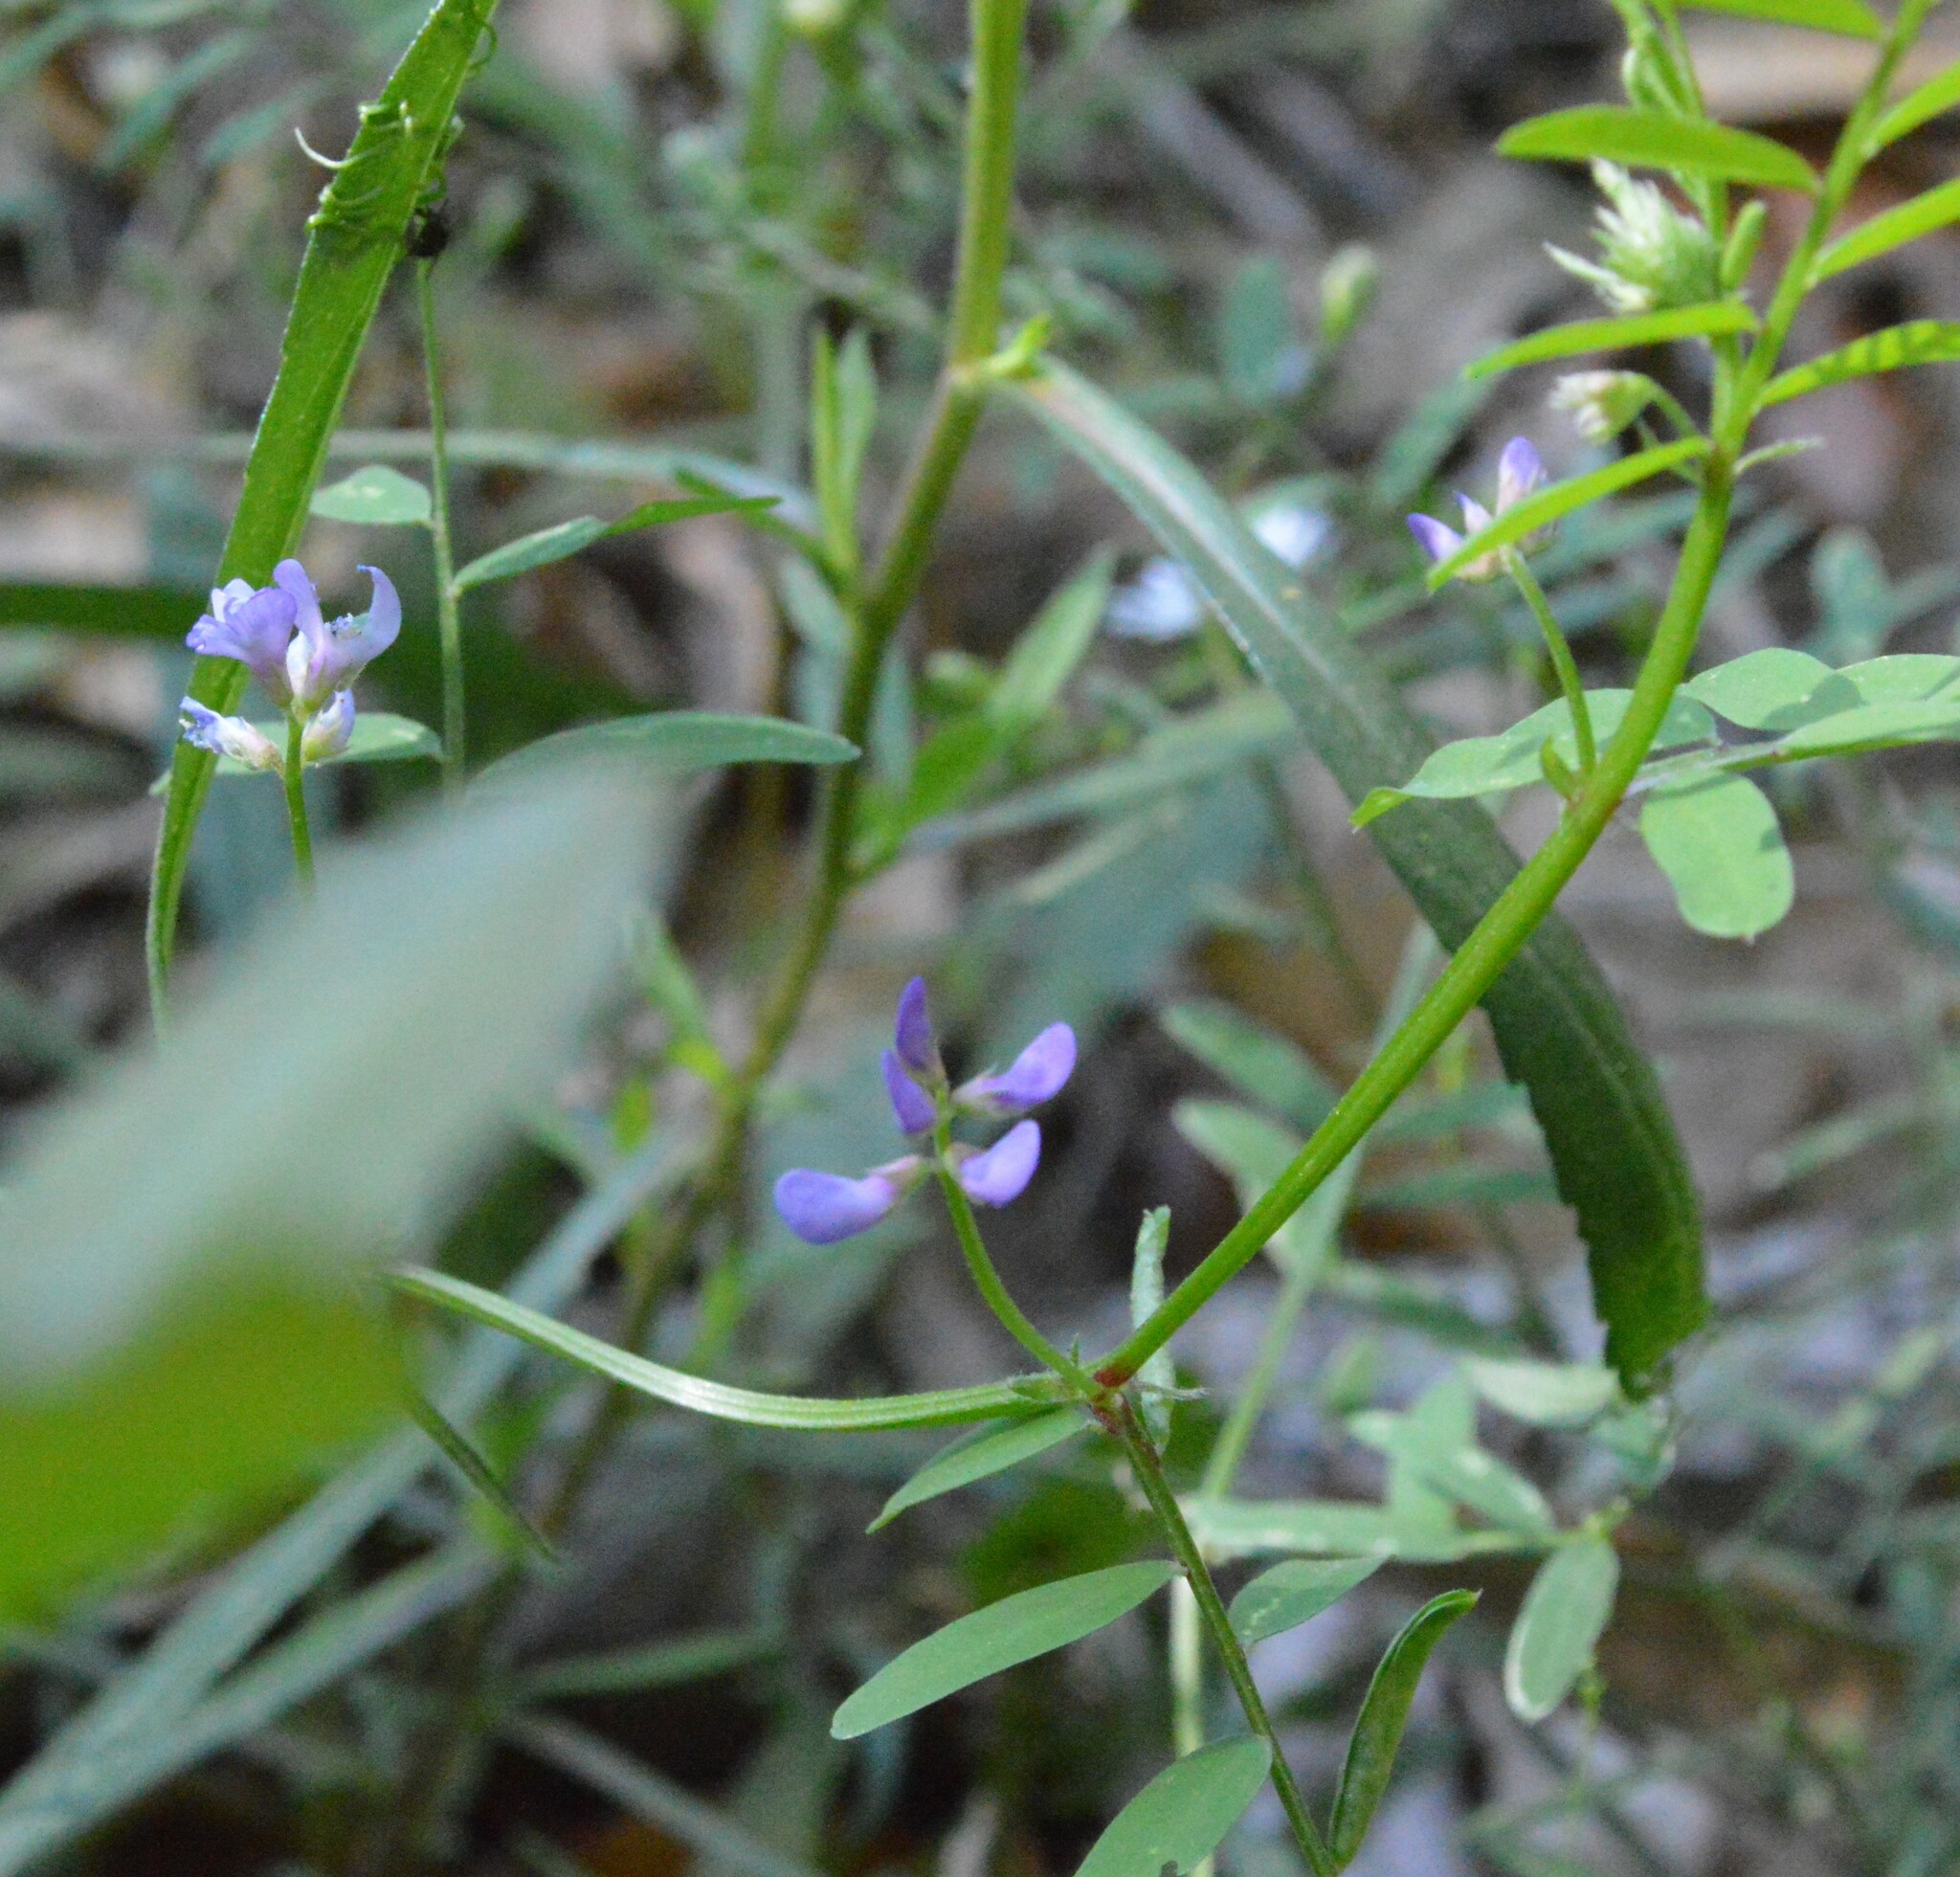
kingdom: Plantae
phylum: Tracheophyta
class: Magnoliopsida
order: Fabales
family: Fabaceae
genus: Vicia
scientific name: Vicia ludoviciana
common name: Louisiana vetch
